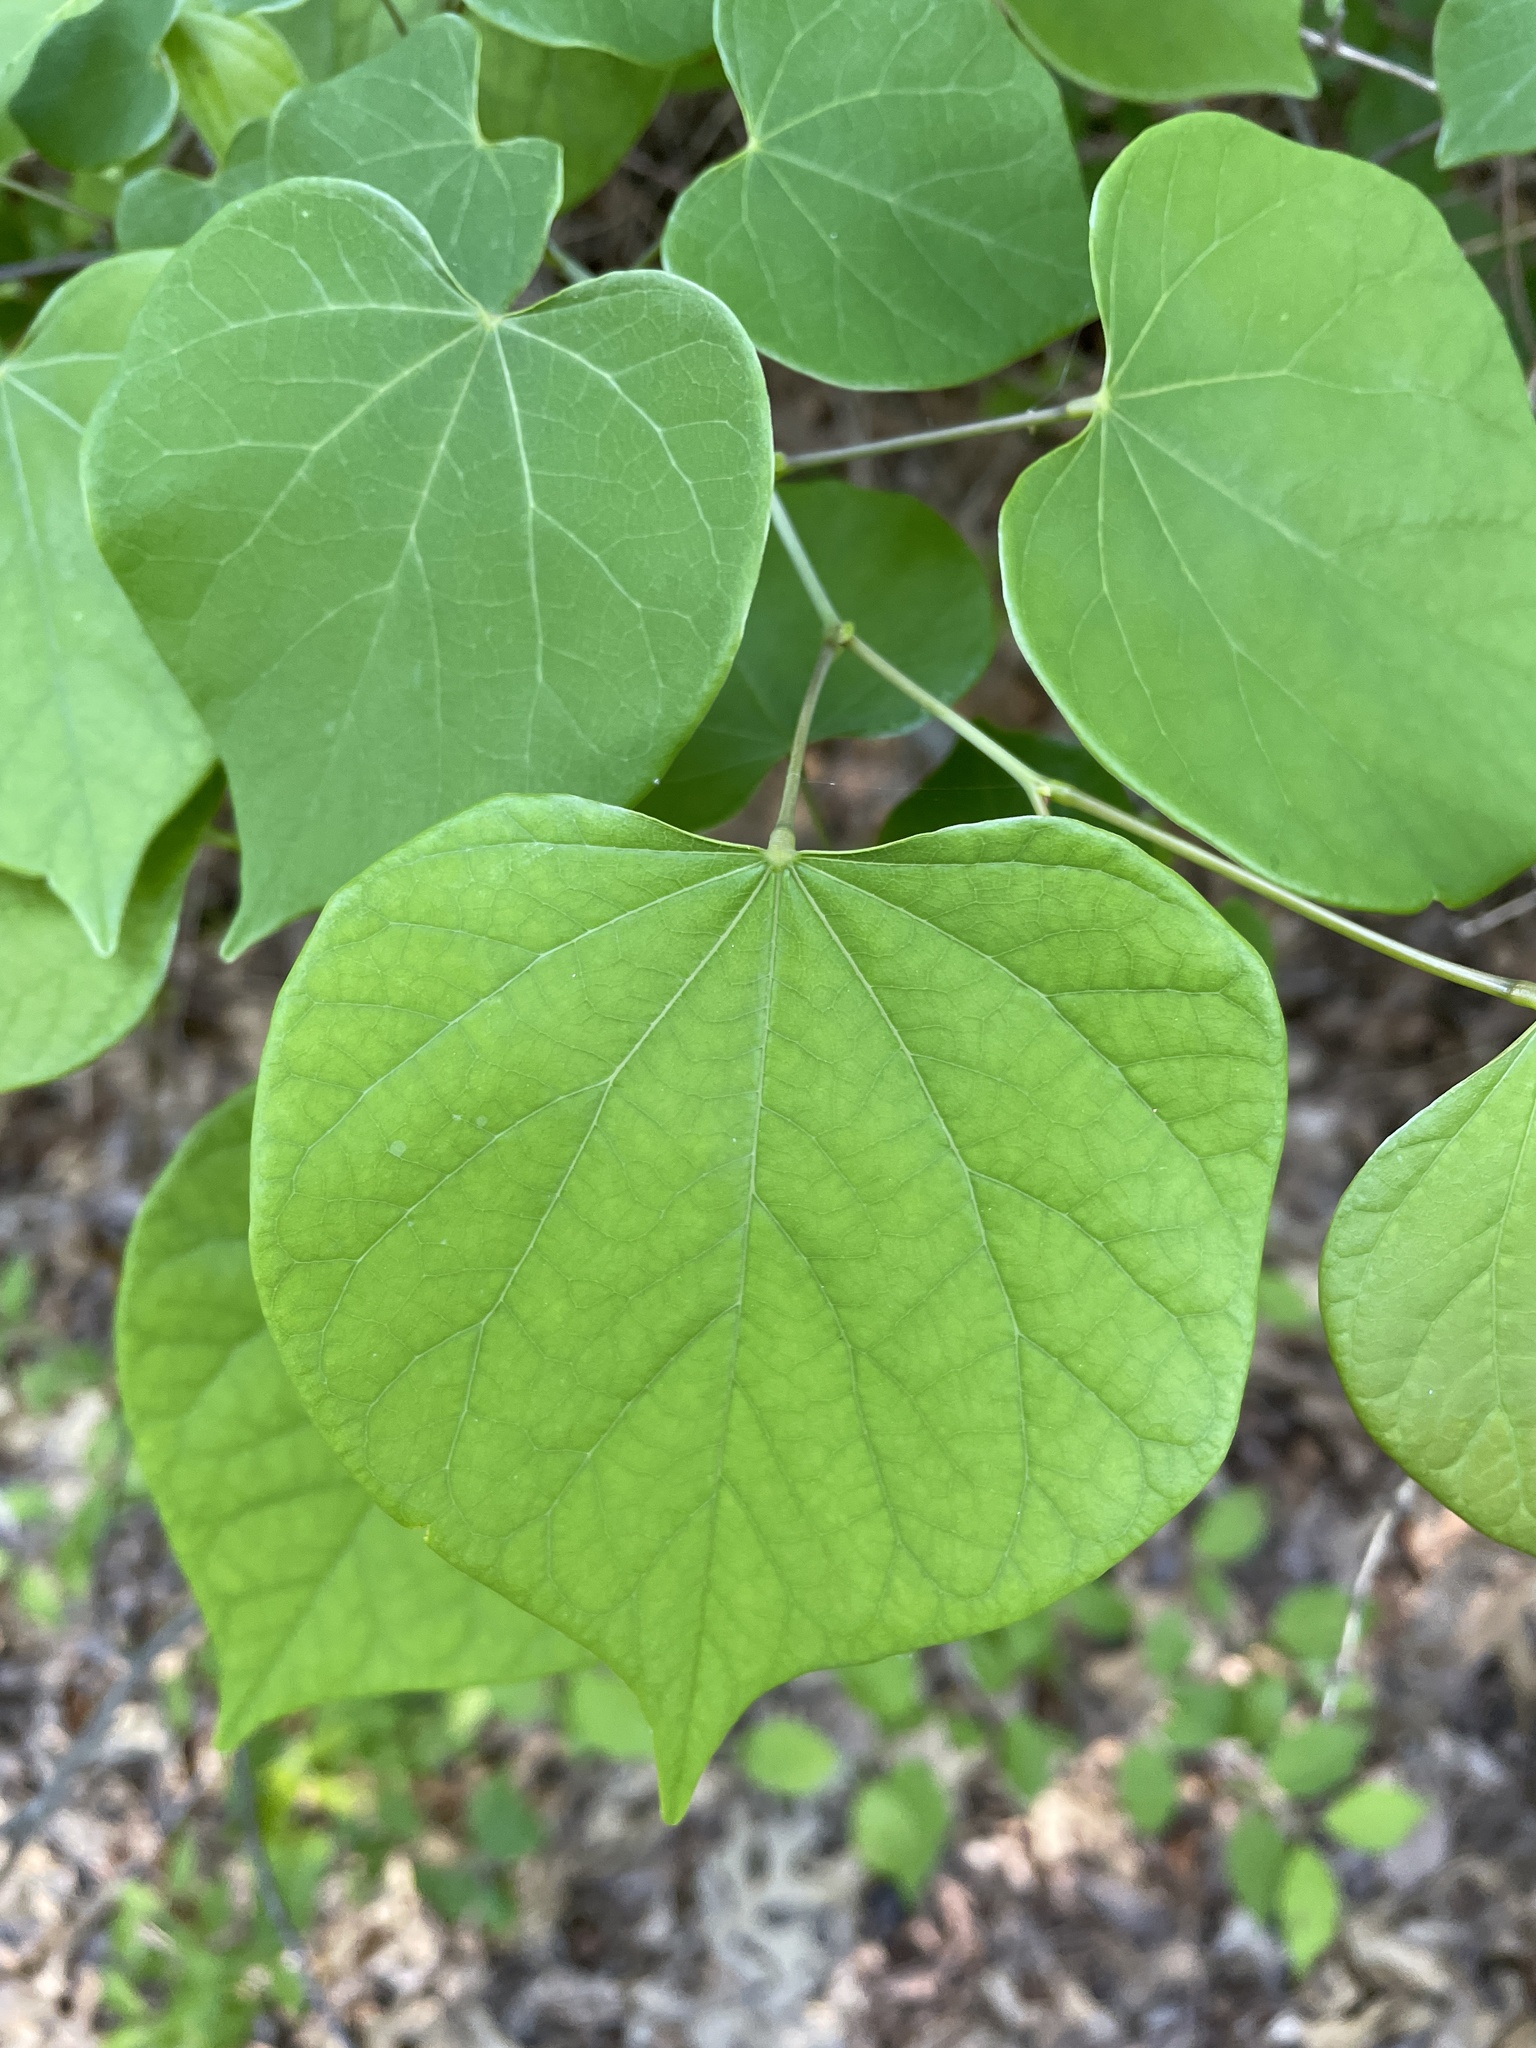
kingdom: Plantae
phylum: Tracheophyta
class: Magnoliopsida
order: Fabales
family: Fabaceae
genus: Cercis
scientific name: Cercis canadensis
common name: Eastern redbud
